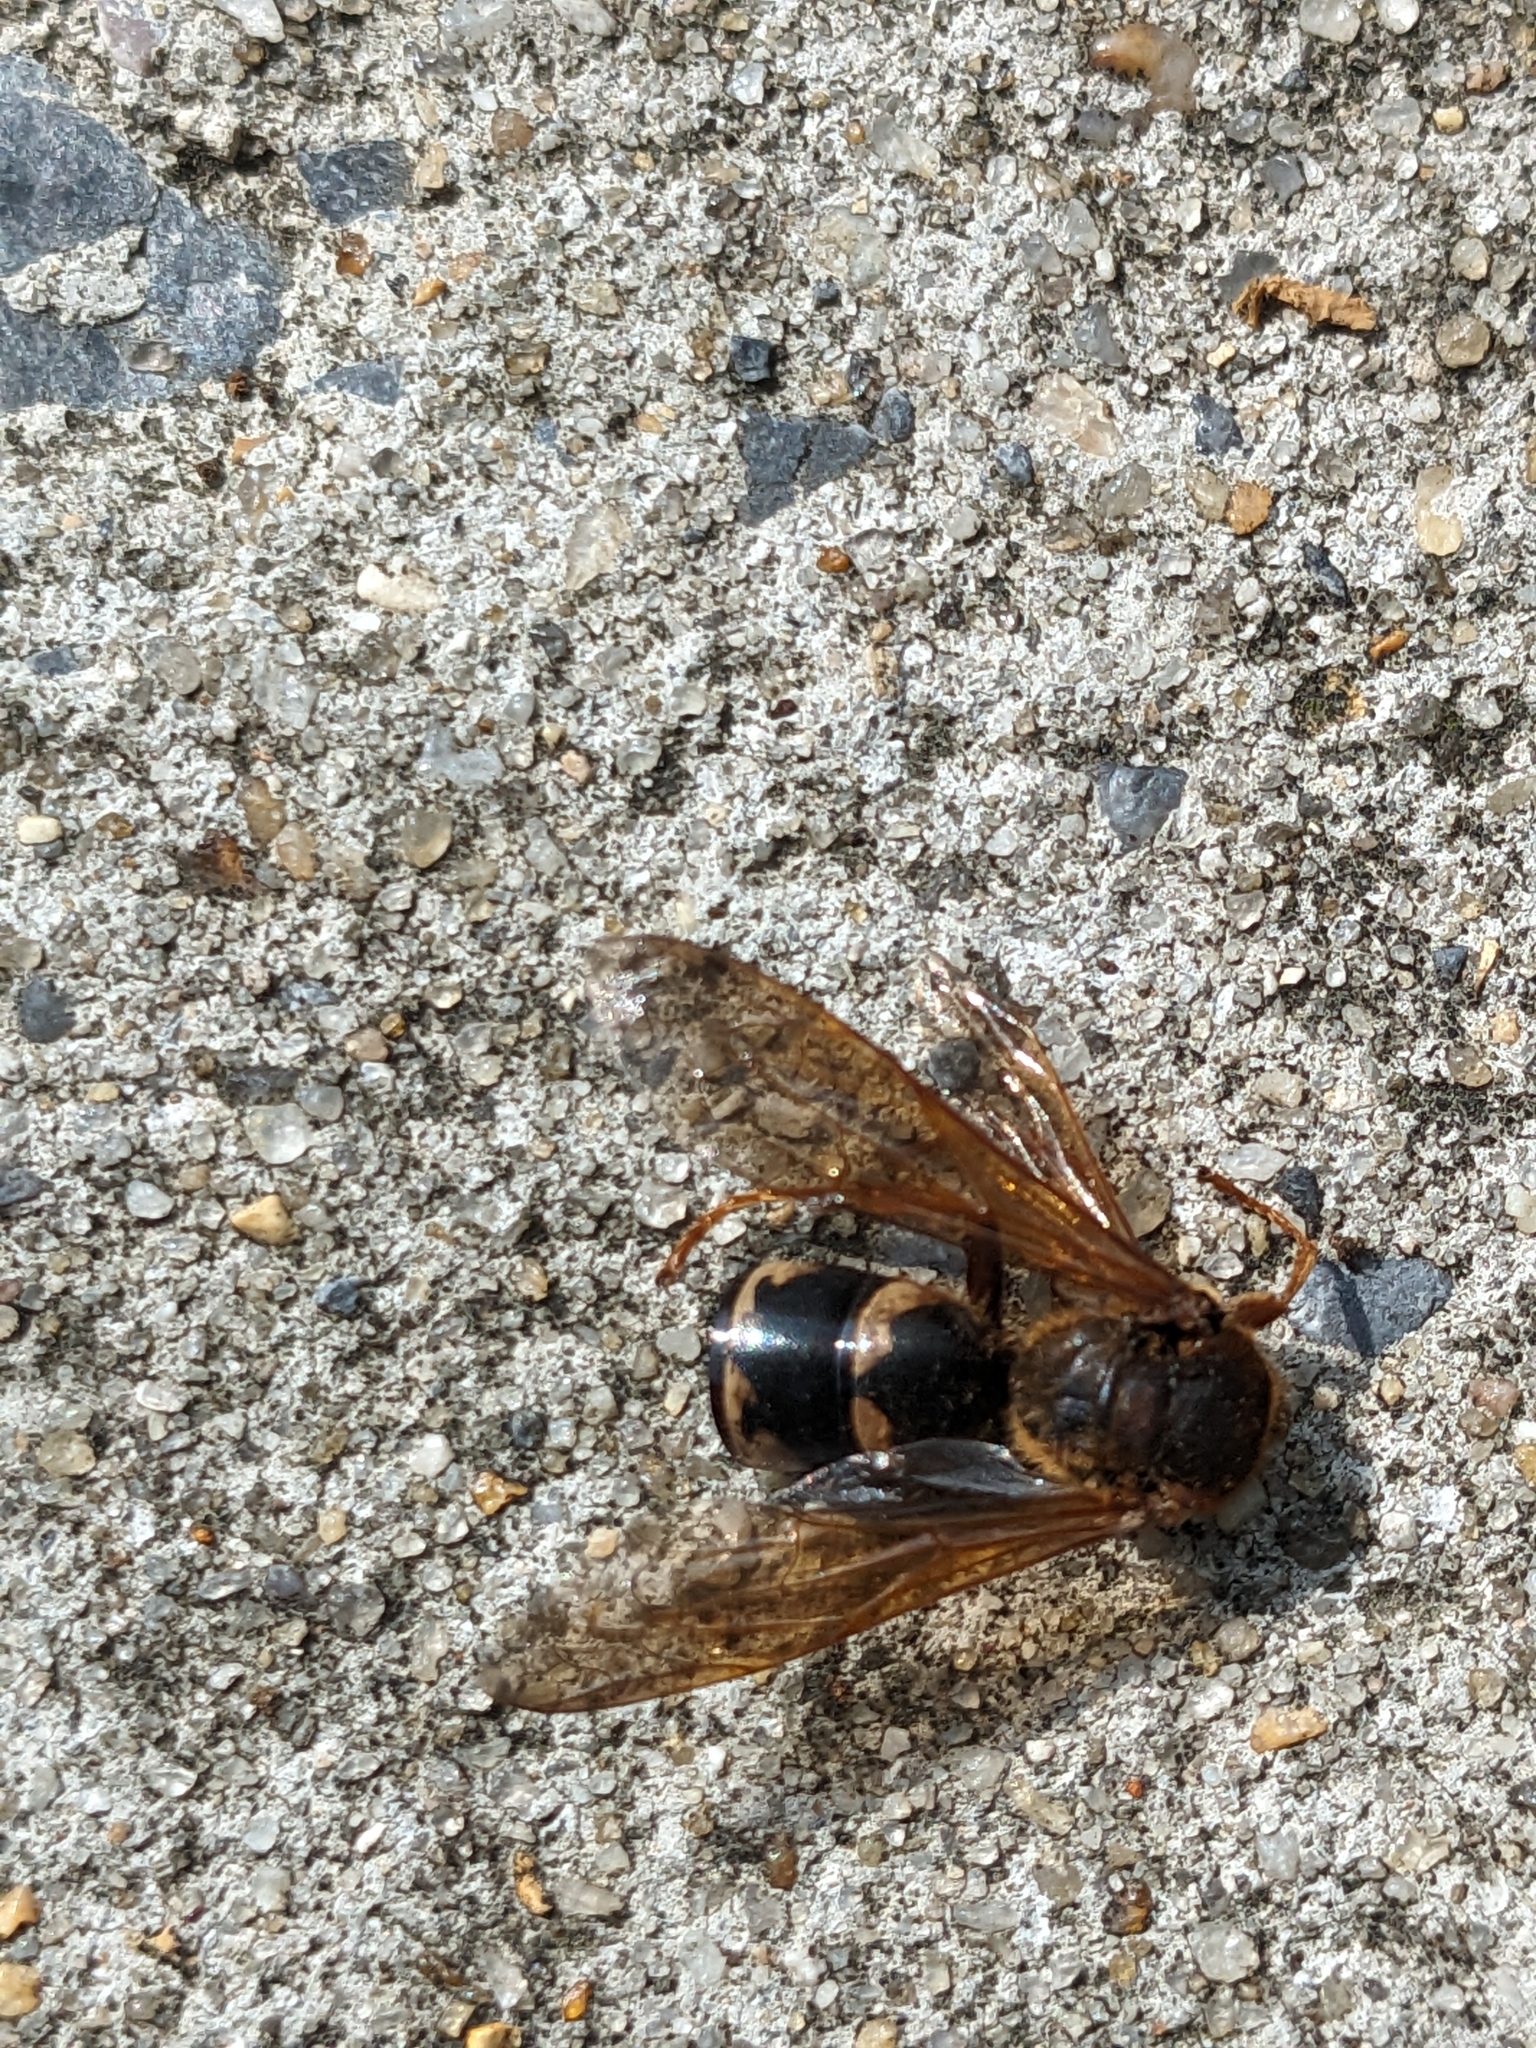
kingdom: Animalia
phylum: Arthropoda
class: Insecta
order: Hymenoptera
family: Crabronidae
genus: Sphecius
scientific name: Sphecius speciosus
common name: Cicada killer
